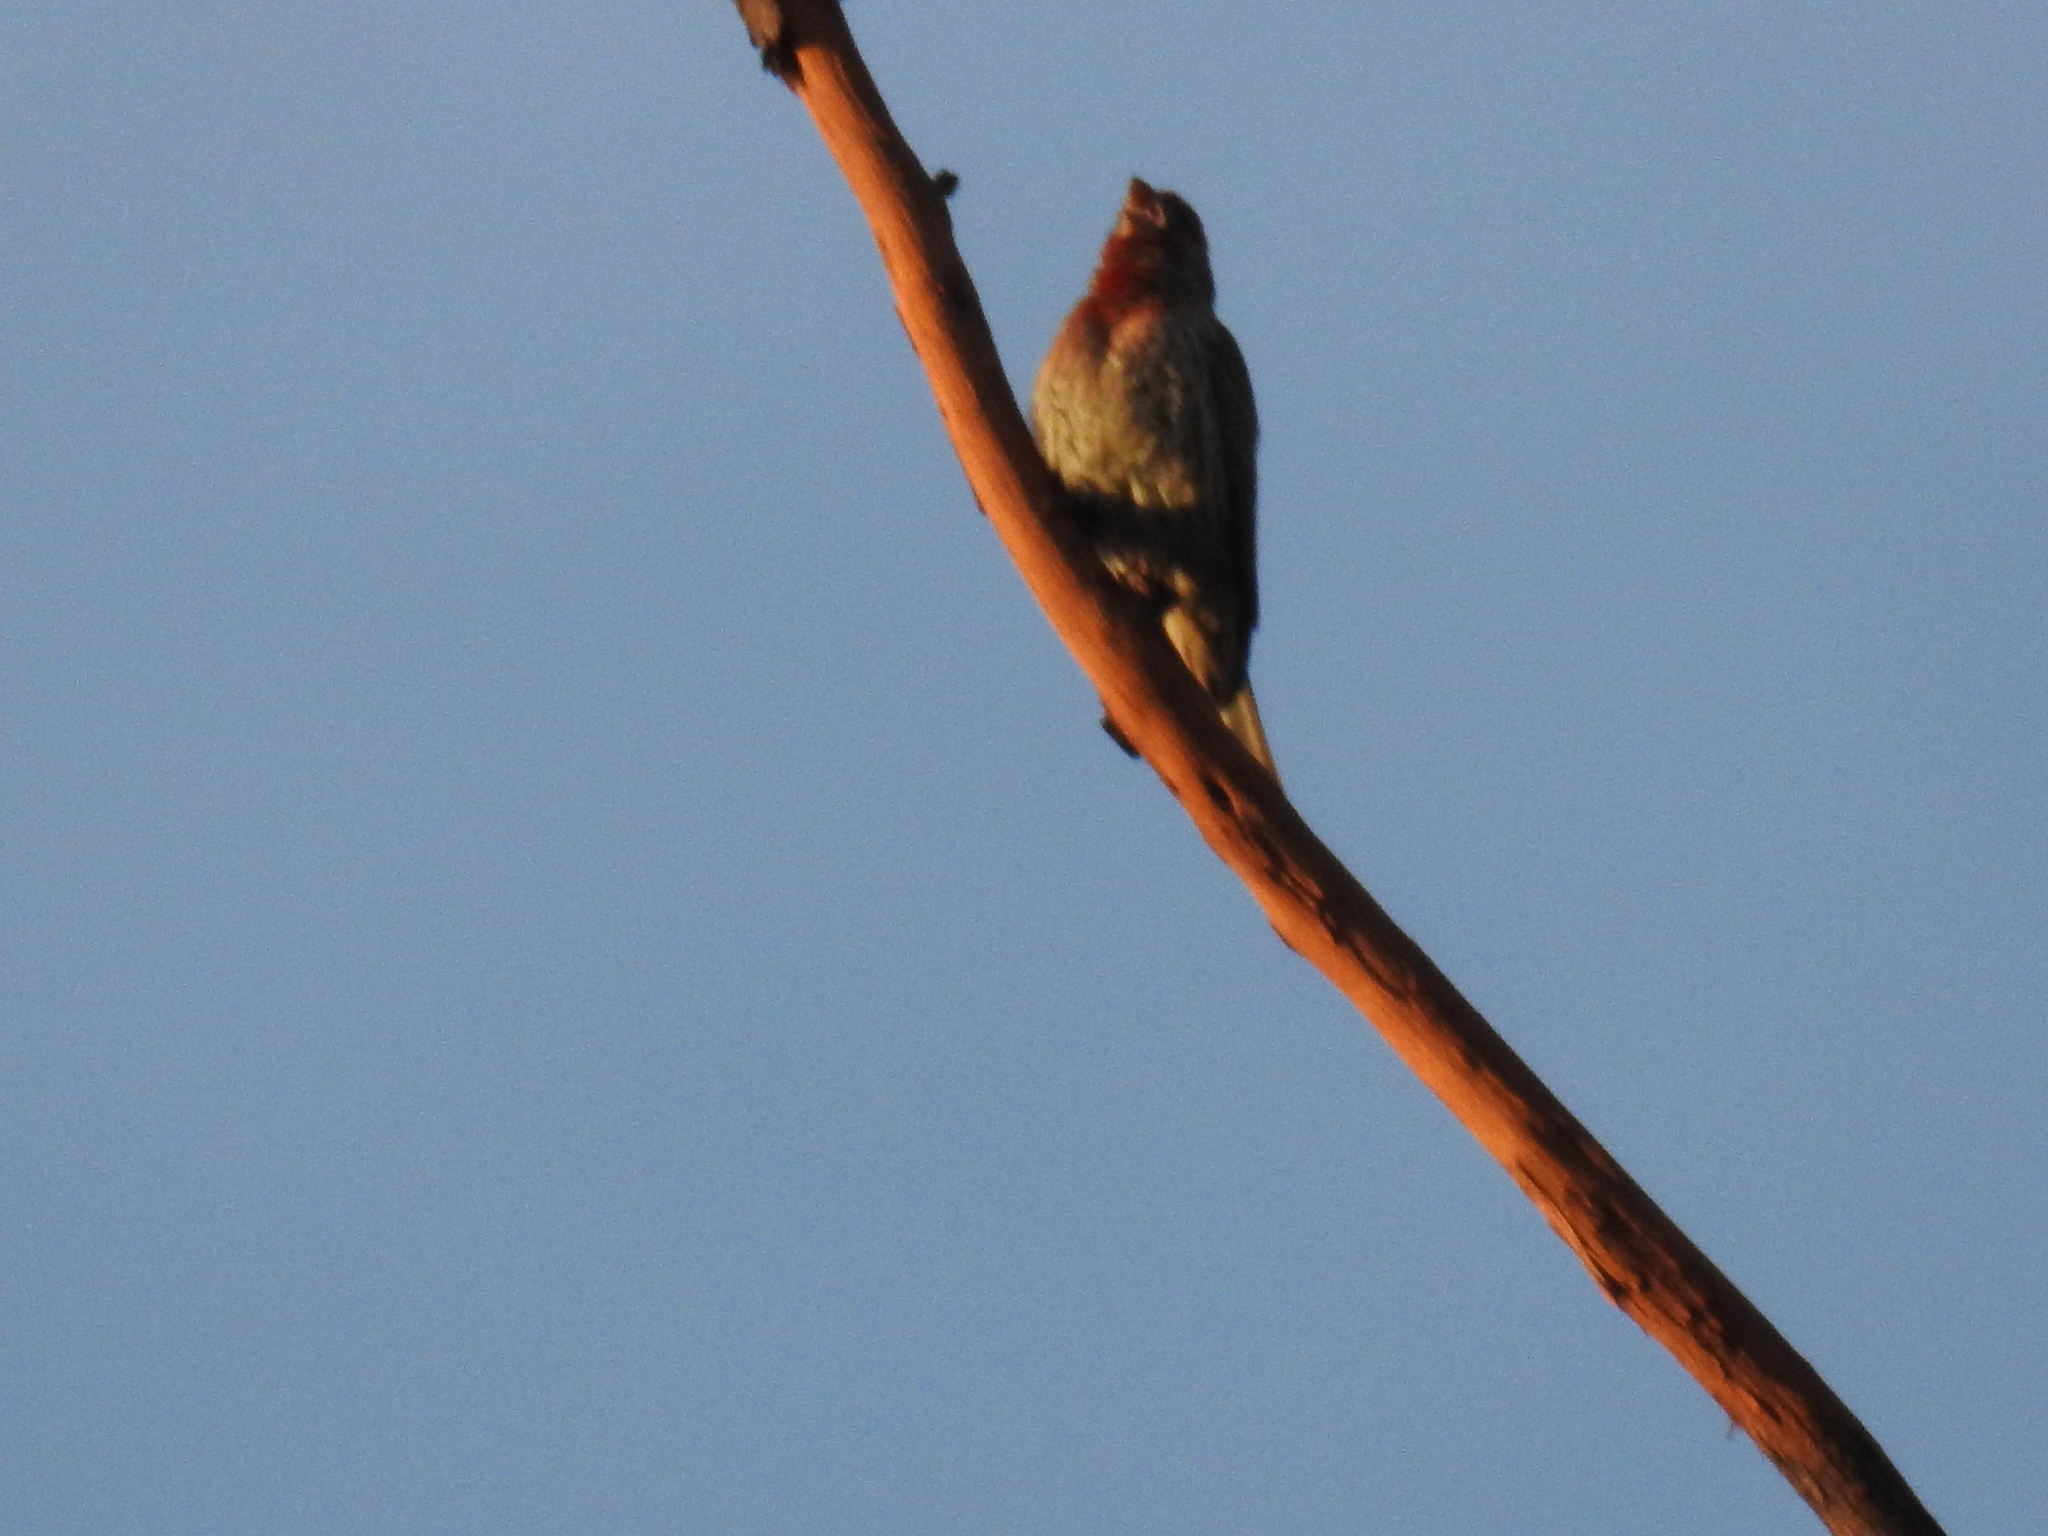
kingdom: Animalia
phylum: Chordata
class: Aves
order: Passeriformes
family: Fringillidae
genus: Haemorhous
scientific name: Haemorhous mexicanus
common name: House finch
